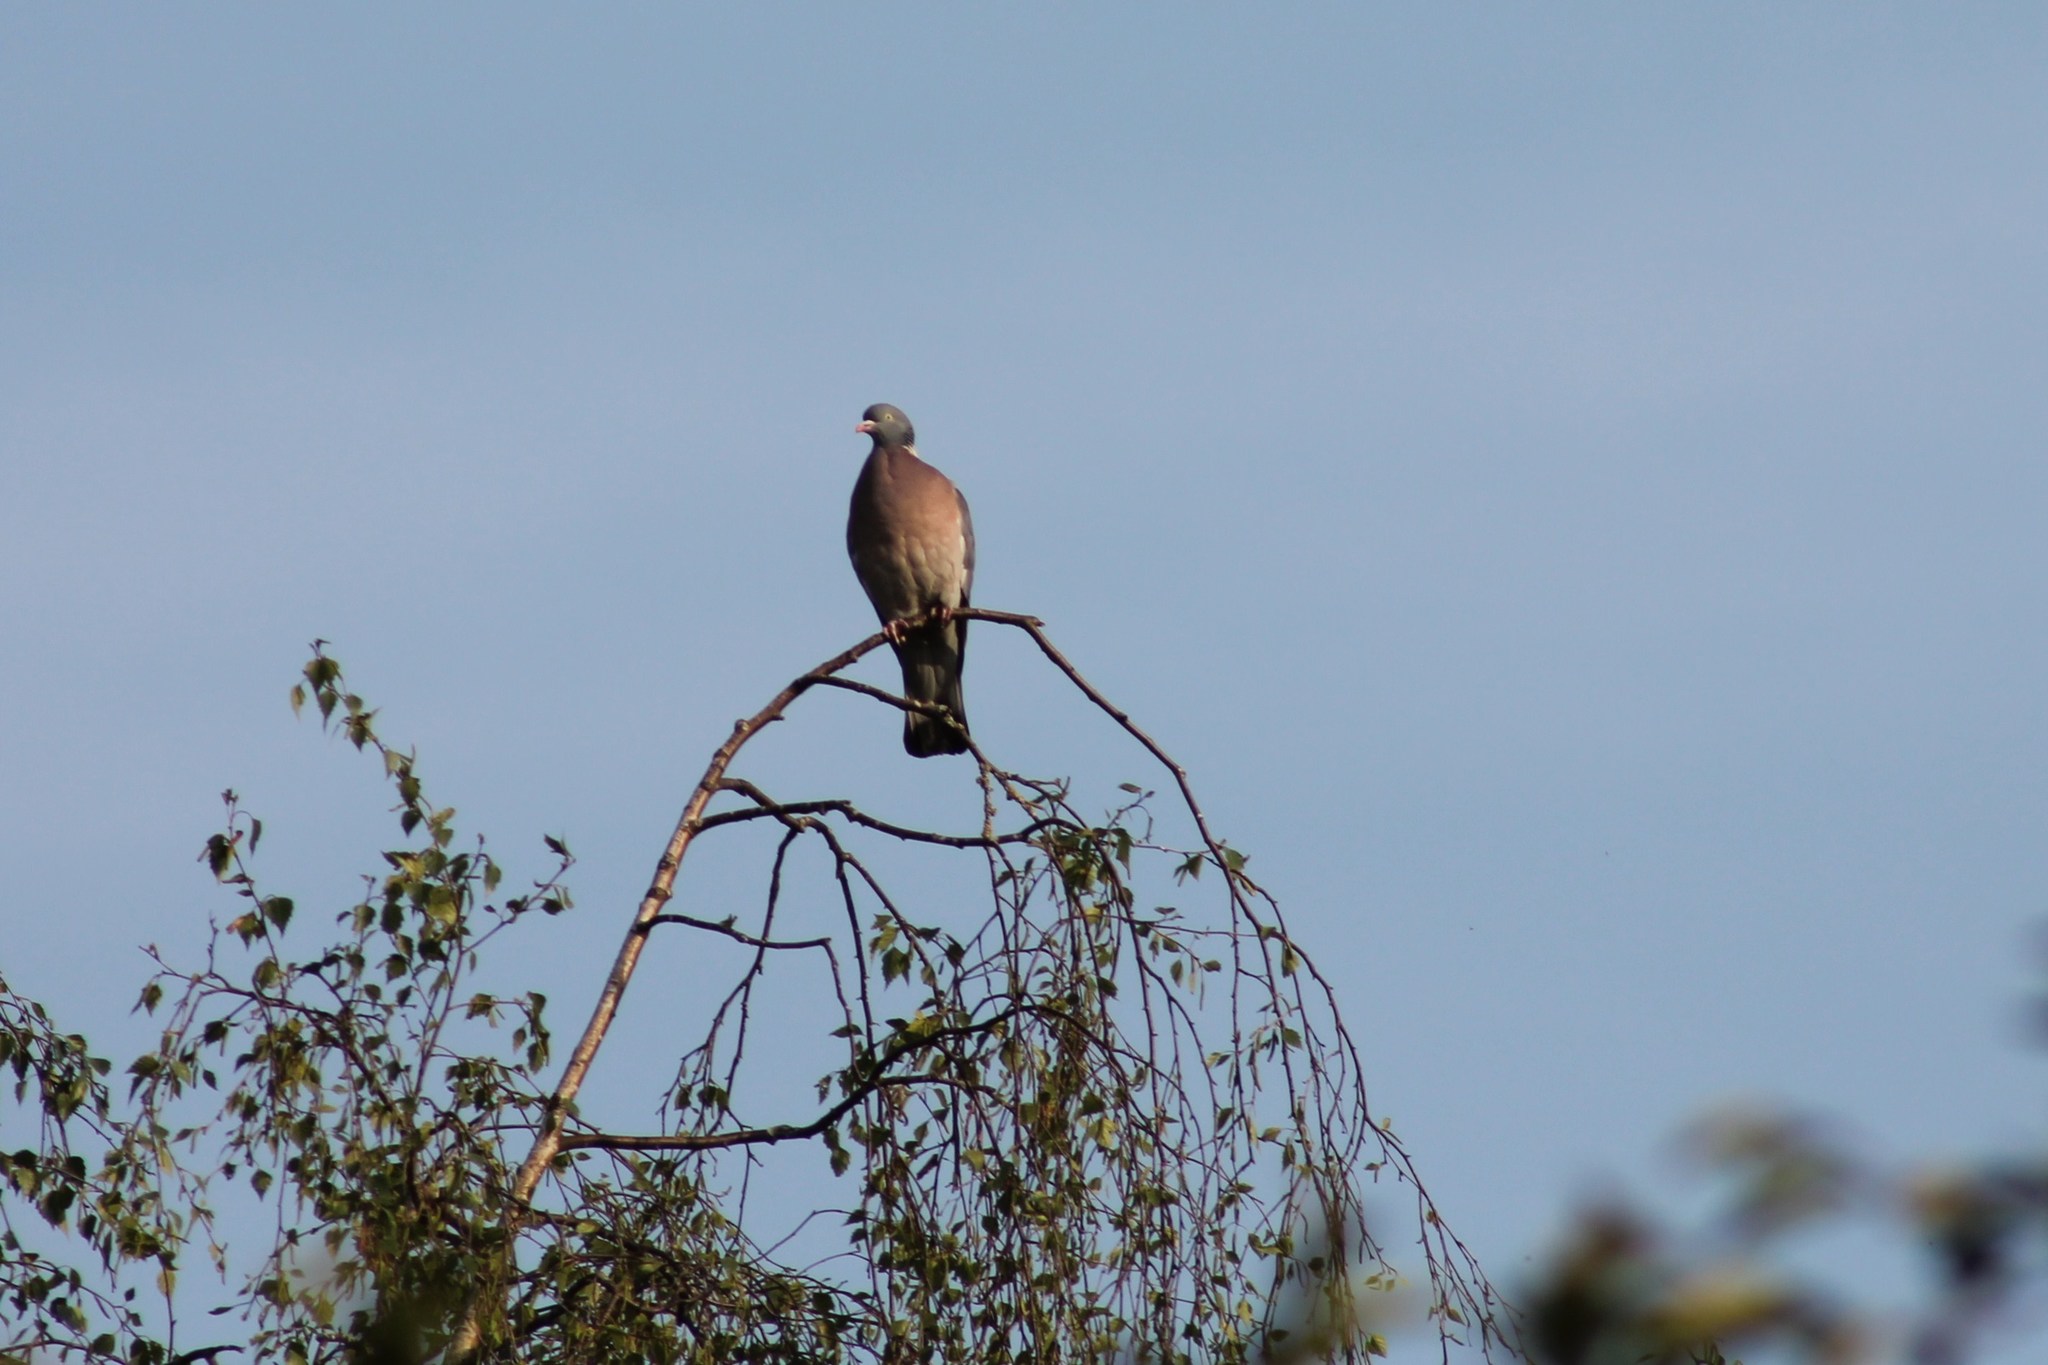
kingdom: Animalia
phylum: Chordata
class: Aves
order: Columbiformes
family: Columbidae
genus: Columba
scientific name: Columba palumbus
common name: Common wood pigeon
